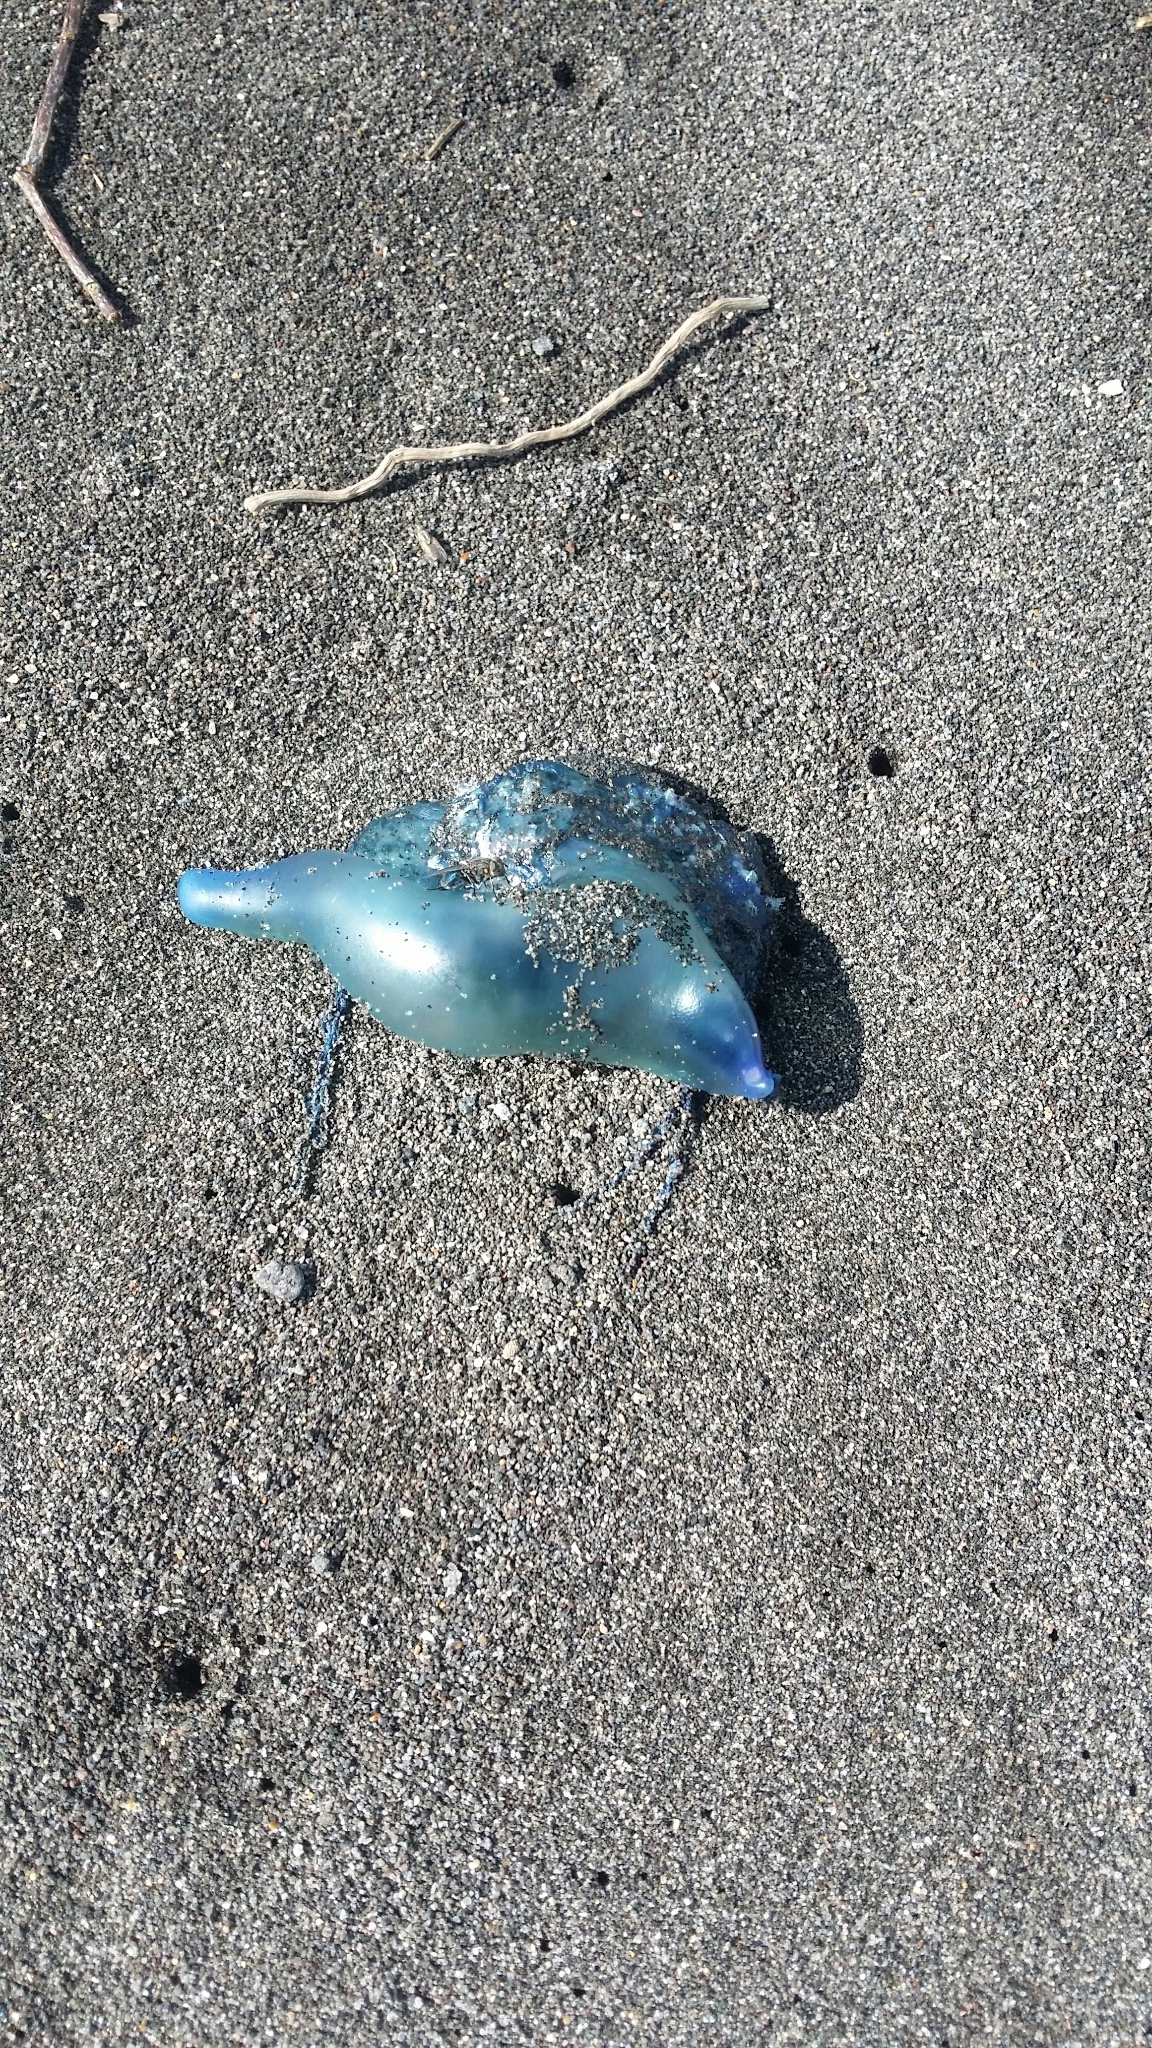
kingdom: Animalia
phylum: Cnidaria
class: Hydrozoa
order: Siphonophorae
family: Physaliidae
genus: Physalia
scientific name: Physalia physalis
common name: Portuguese man-of-war
